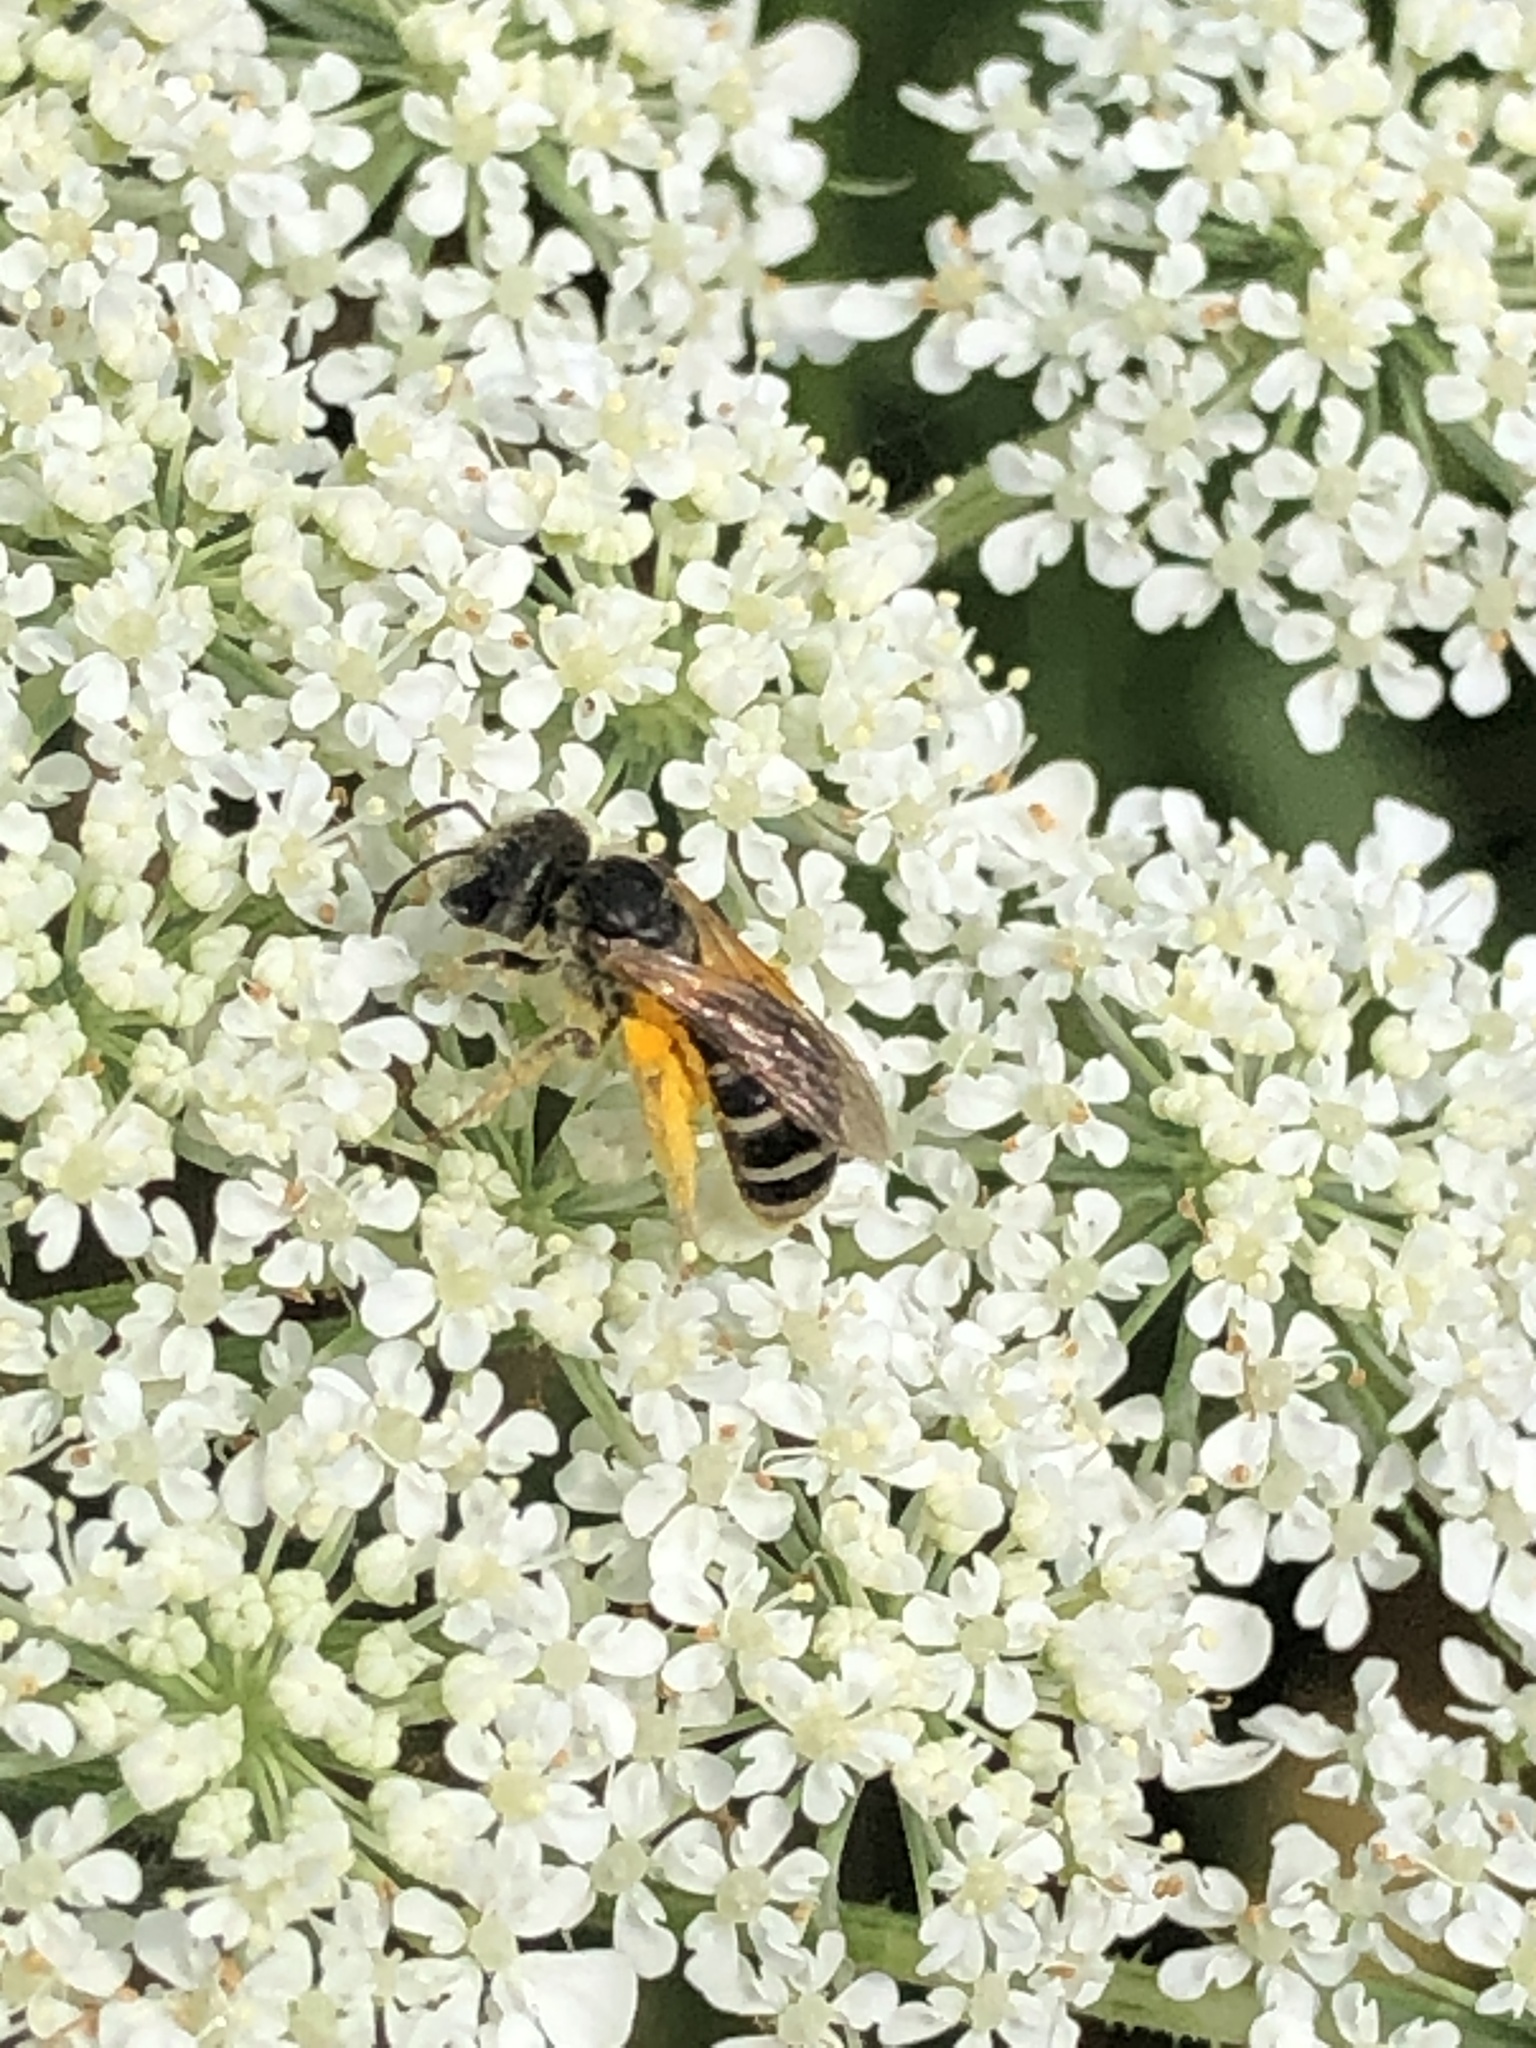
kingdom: Animalia
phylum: Arthropoda
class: Insecta
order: Hymenoptera
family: Halictidae
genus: Halictus
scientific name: Halictus ligatus
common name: Ligated furrow bee
